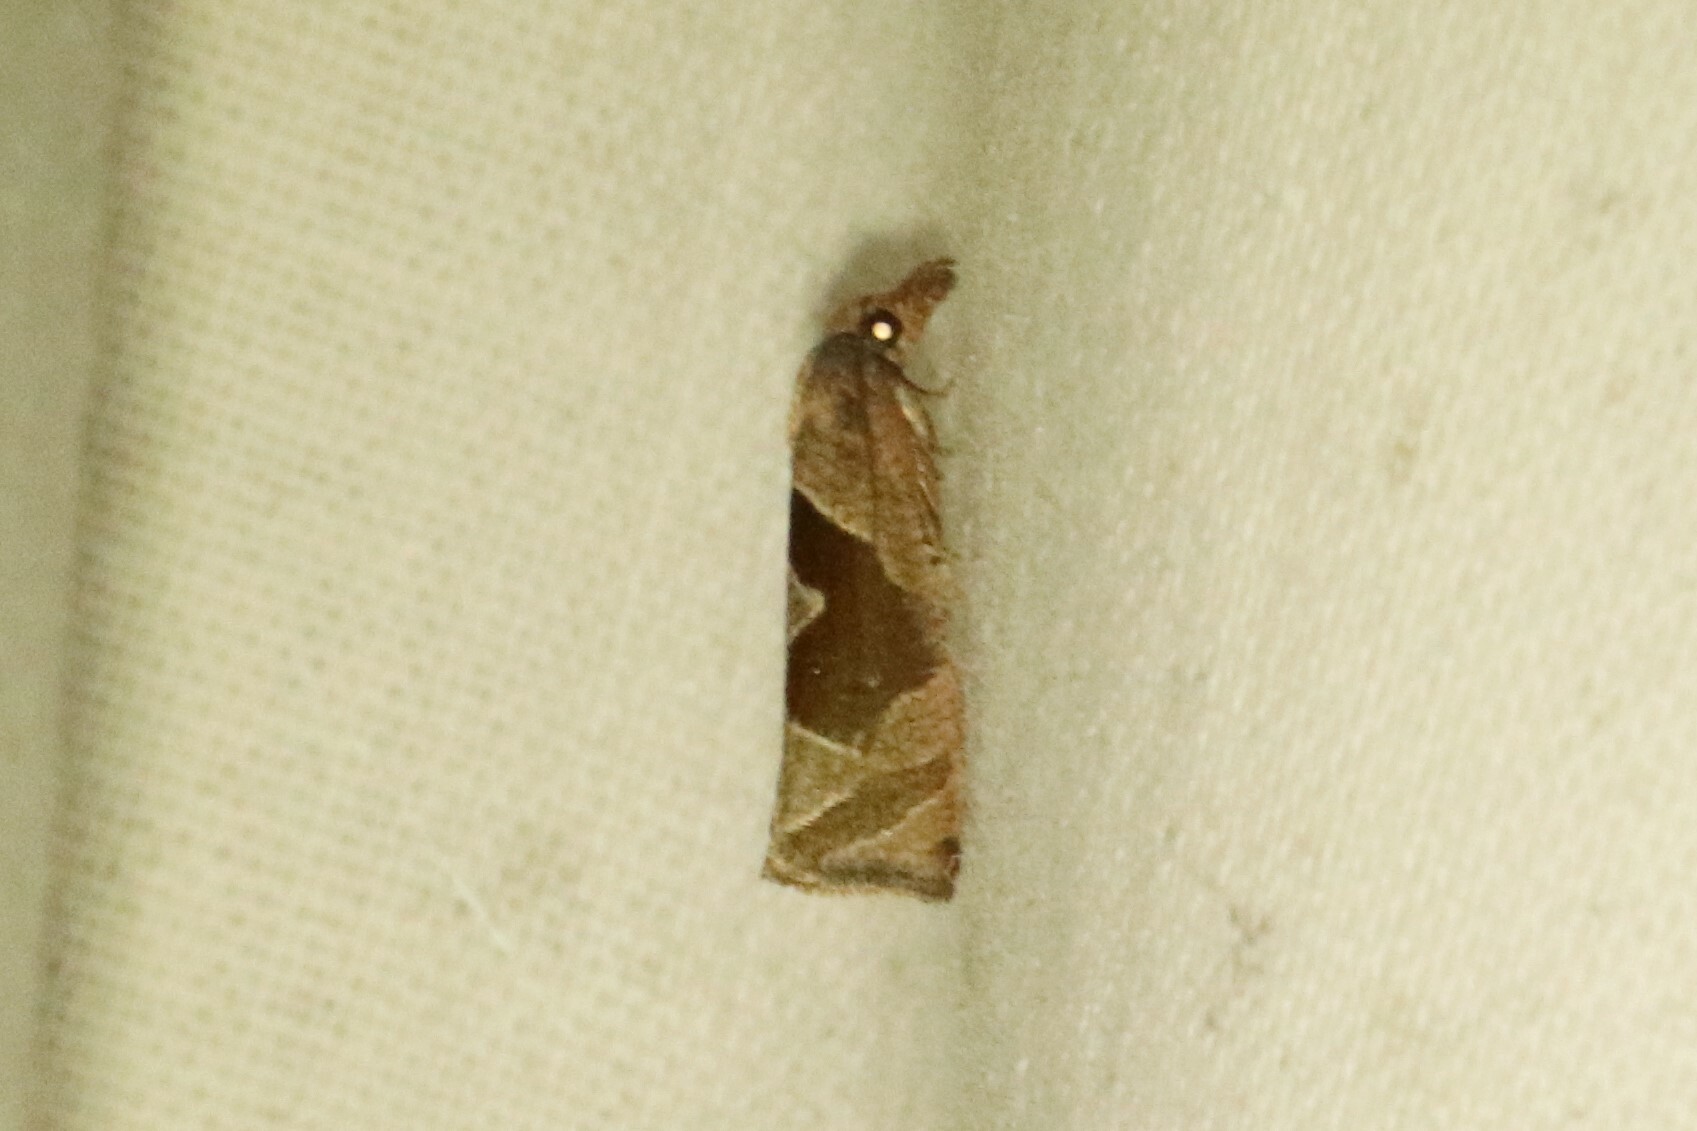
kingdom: Animalia
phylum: Arthropoda
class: Insecta
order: Lepidoptera
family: Tortricidae
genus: Pelochrista
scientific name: Pelochrista similiana
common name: Similar eucosma
